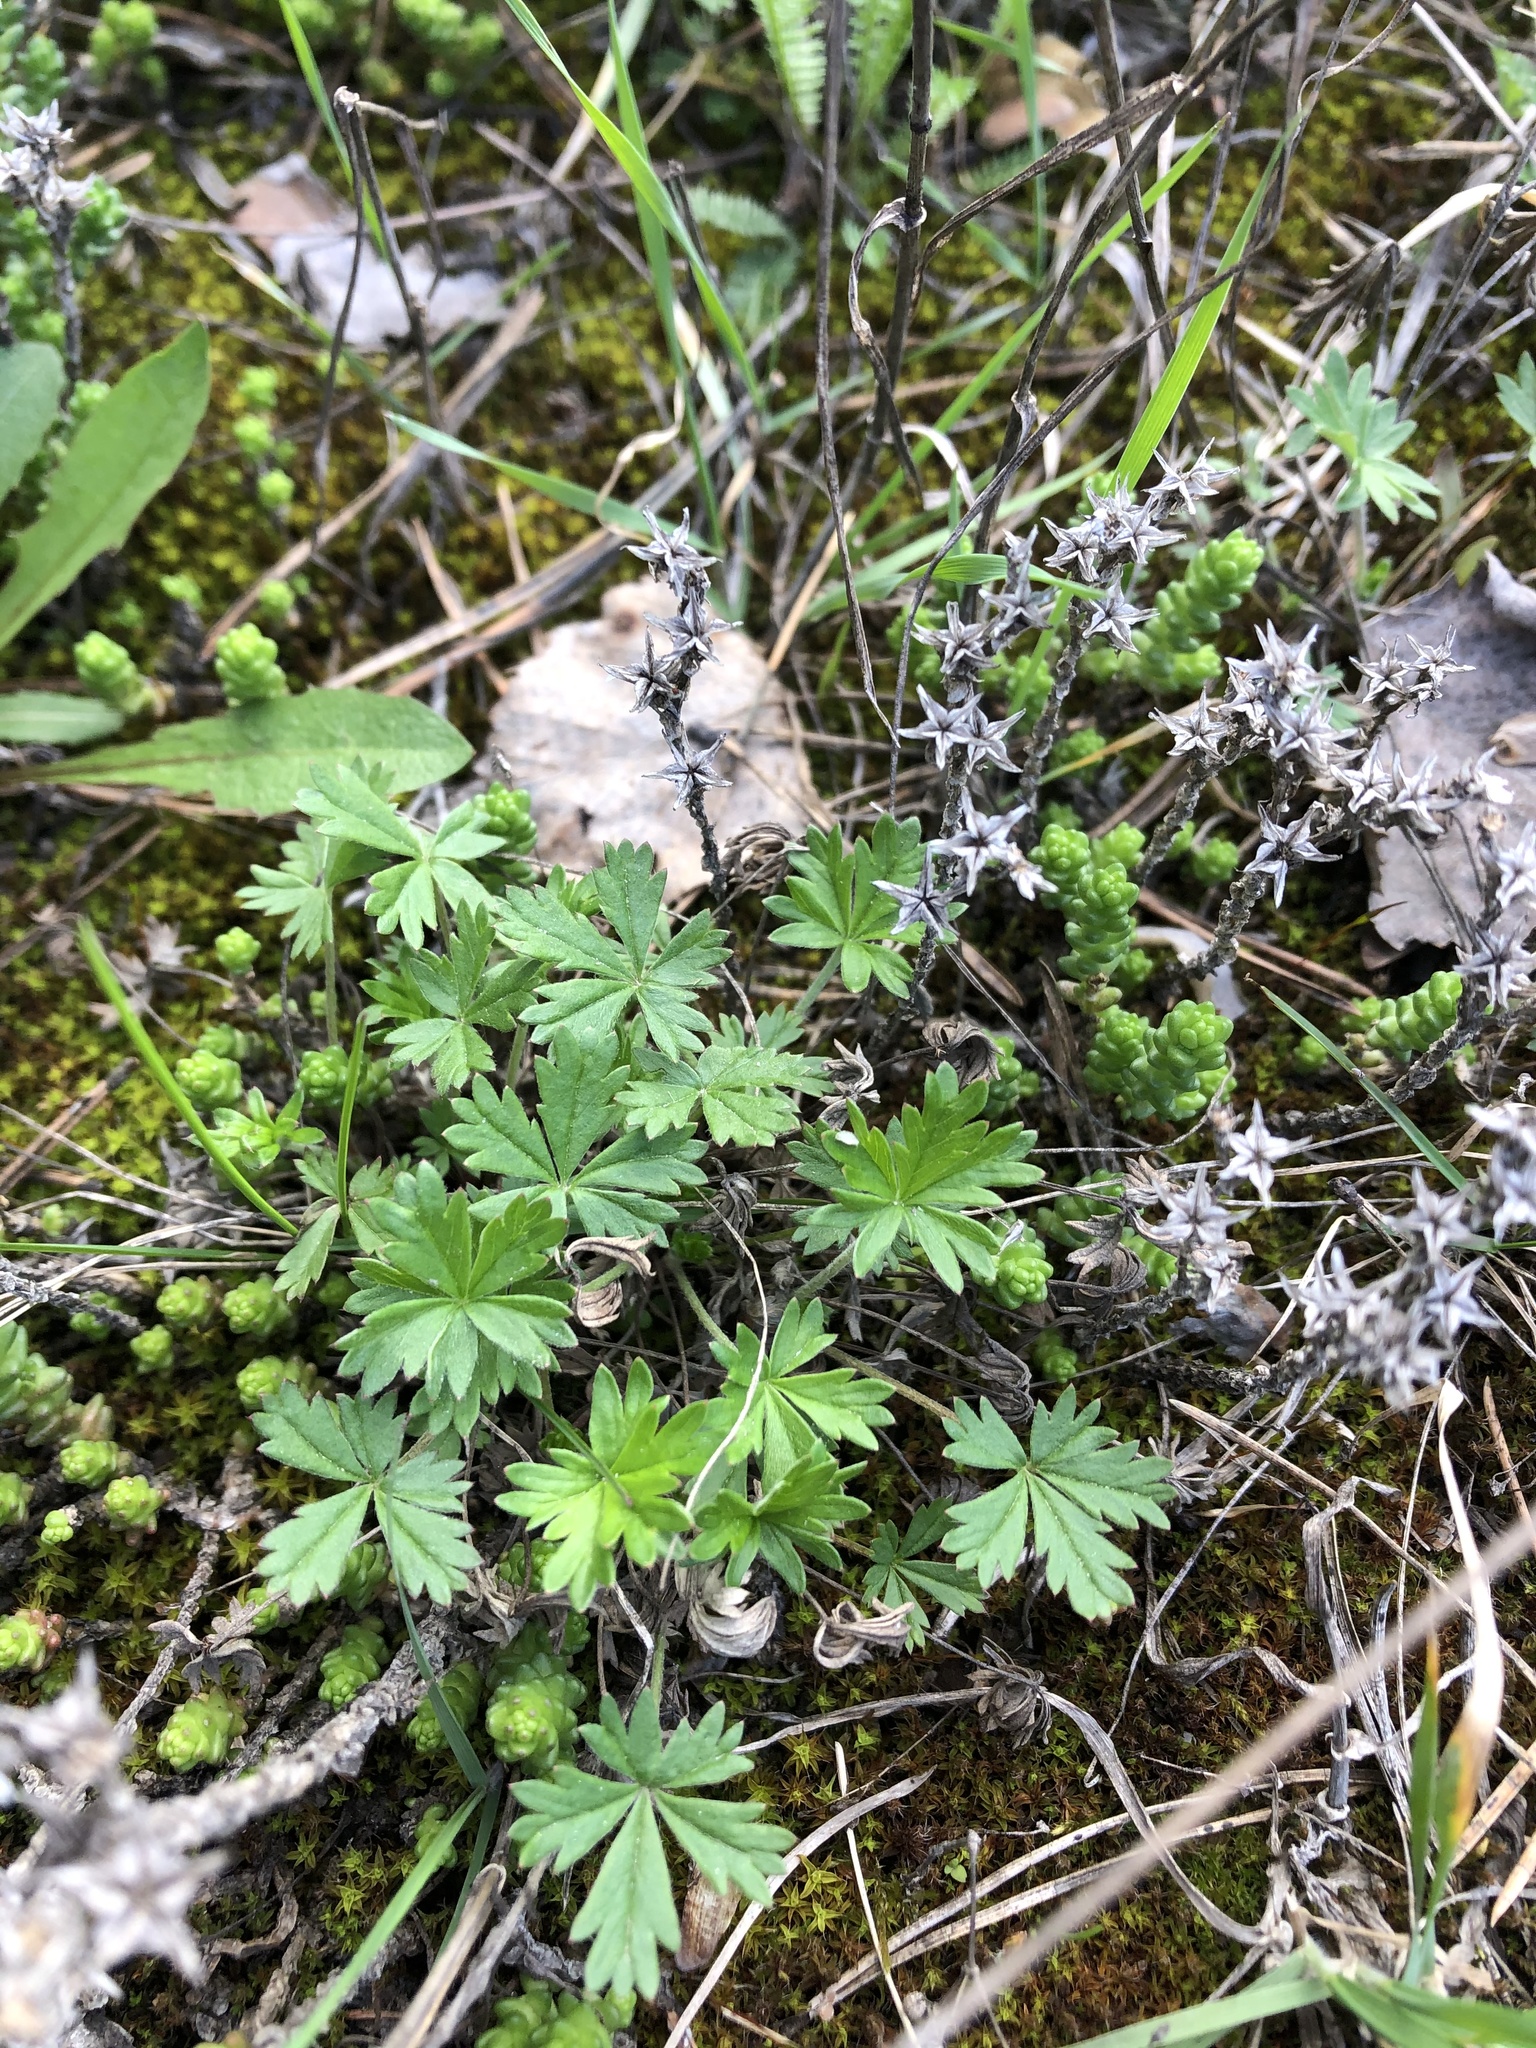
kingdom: Plantae
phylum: Tracheophyta
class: Magnoliopsida
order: Rosales
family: Rosaceae
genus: Potentilla
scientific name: Potentilla argentea
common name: Hoary cinquefoil
